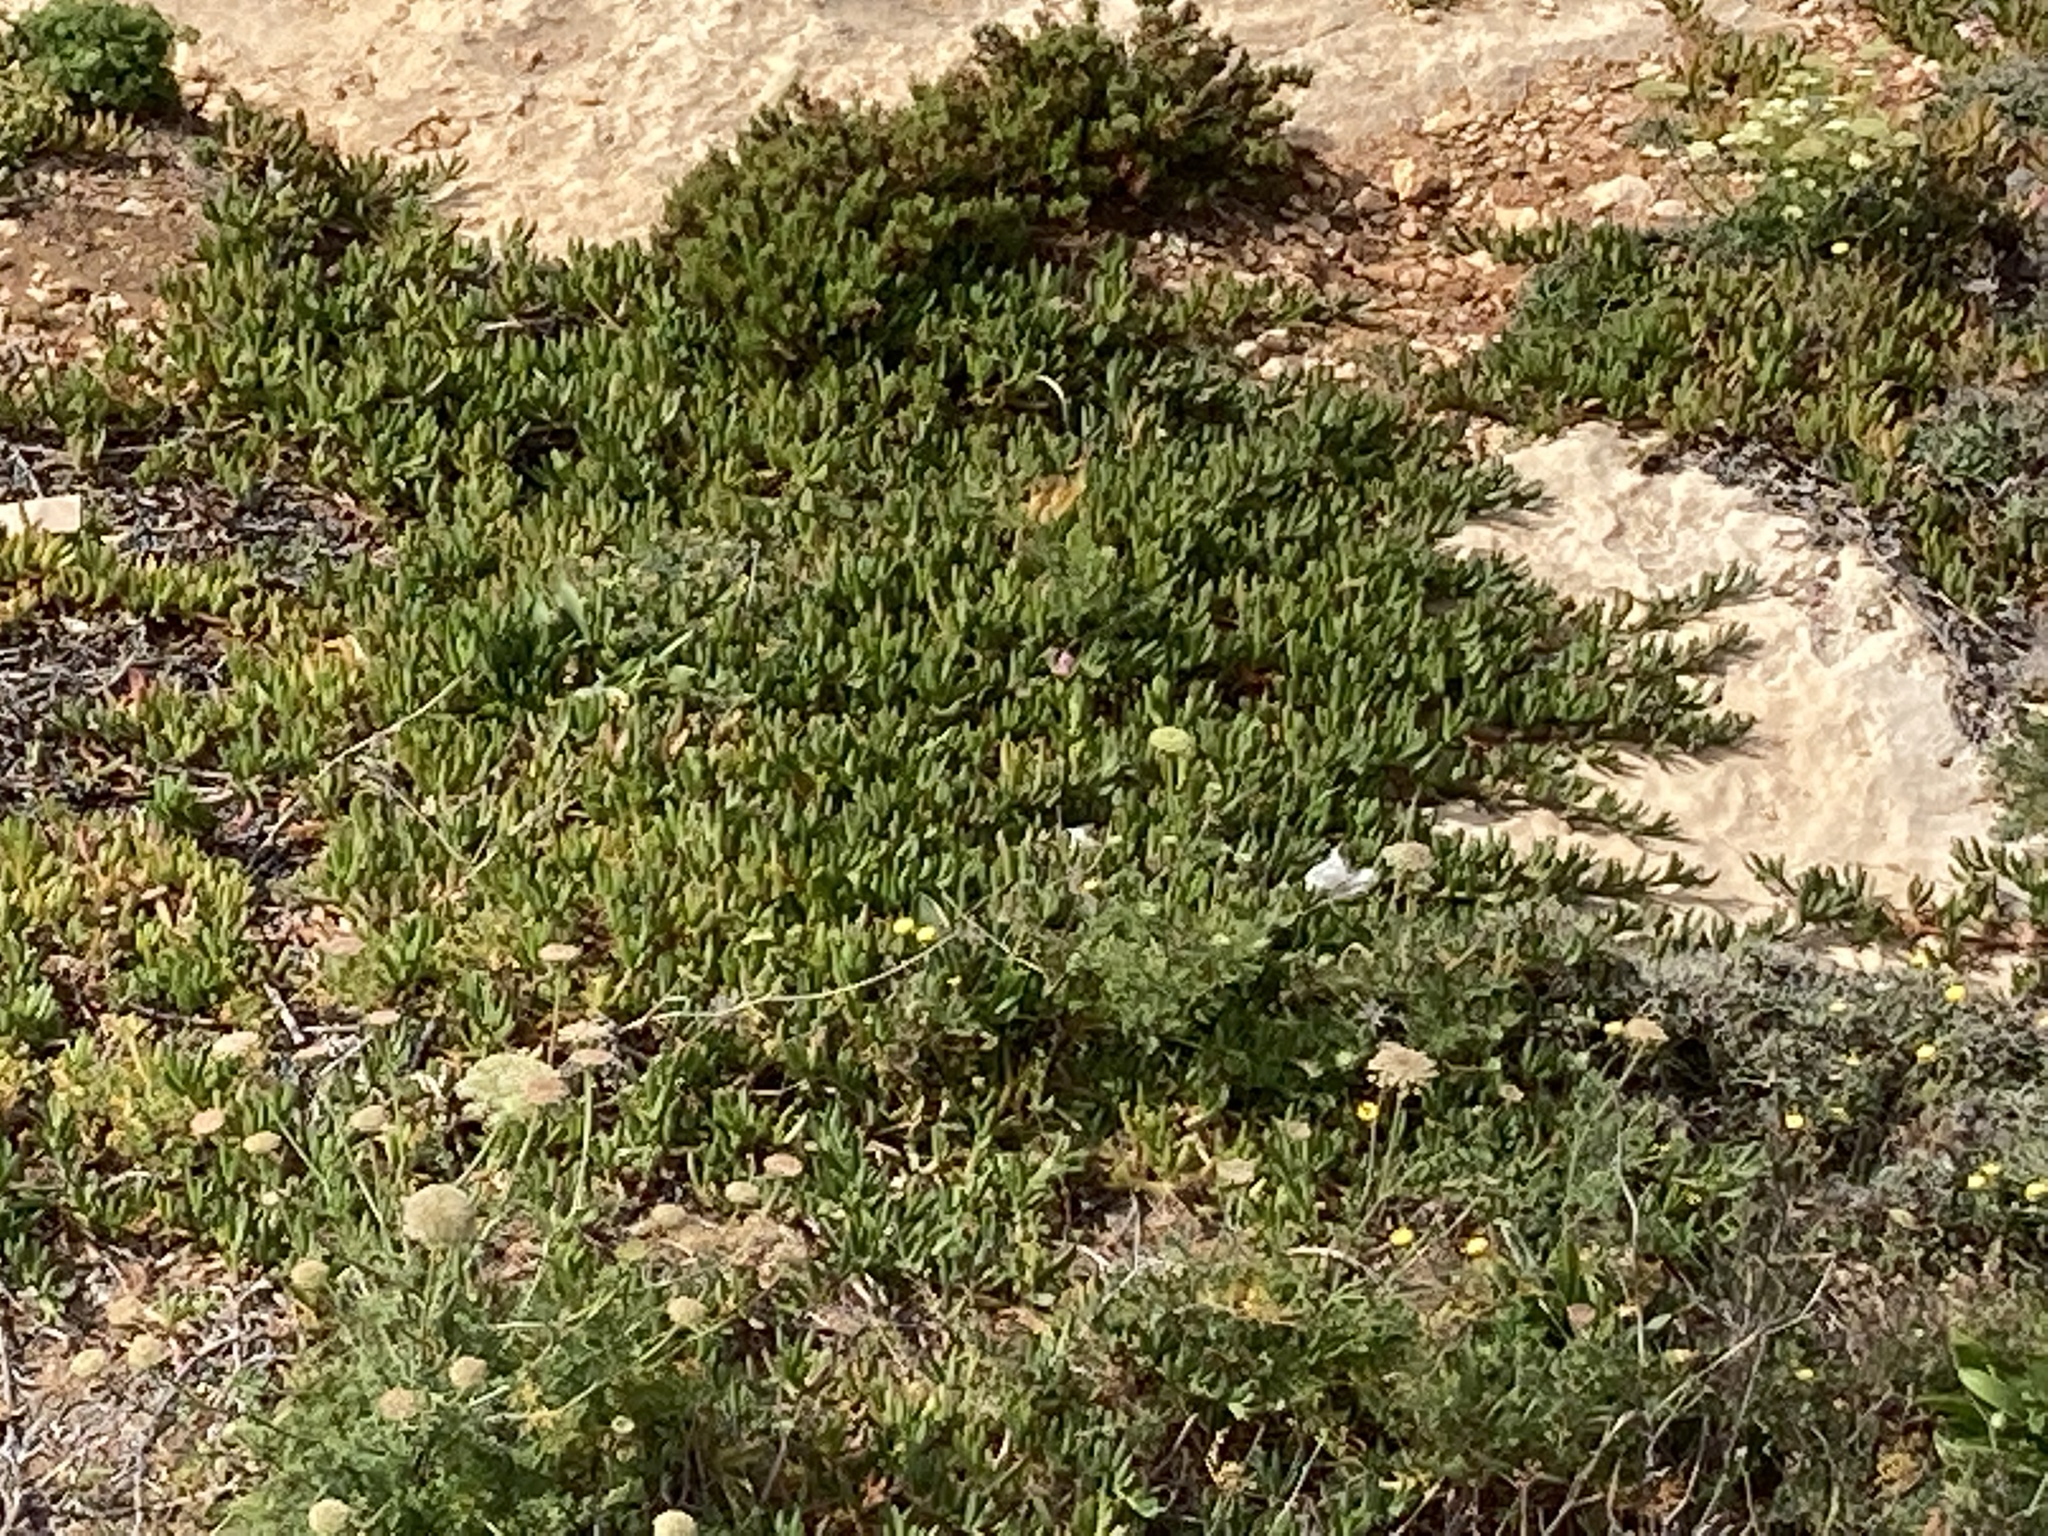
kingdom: Plantae
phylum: Tracheophyta
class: Magnoliopsida
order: Caryophyllales
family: Aizoaceae
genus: Carpobrotus
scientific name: Carpobrotus
